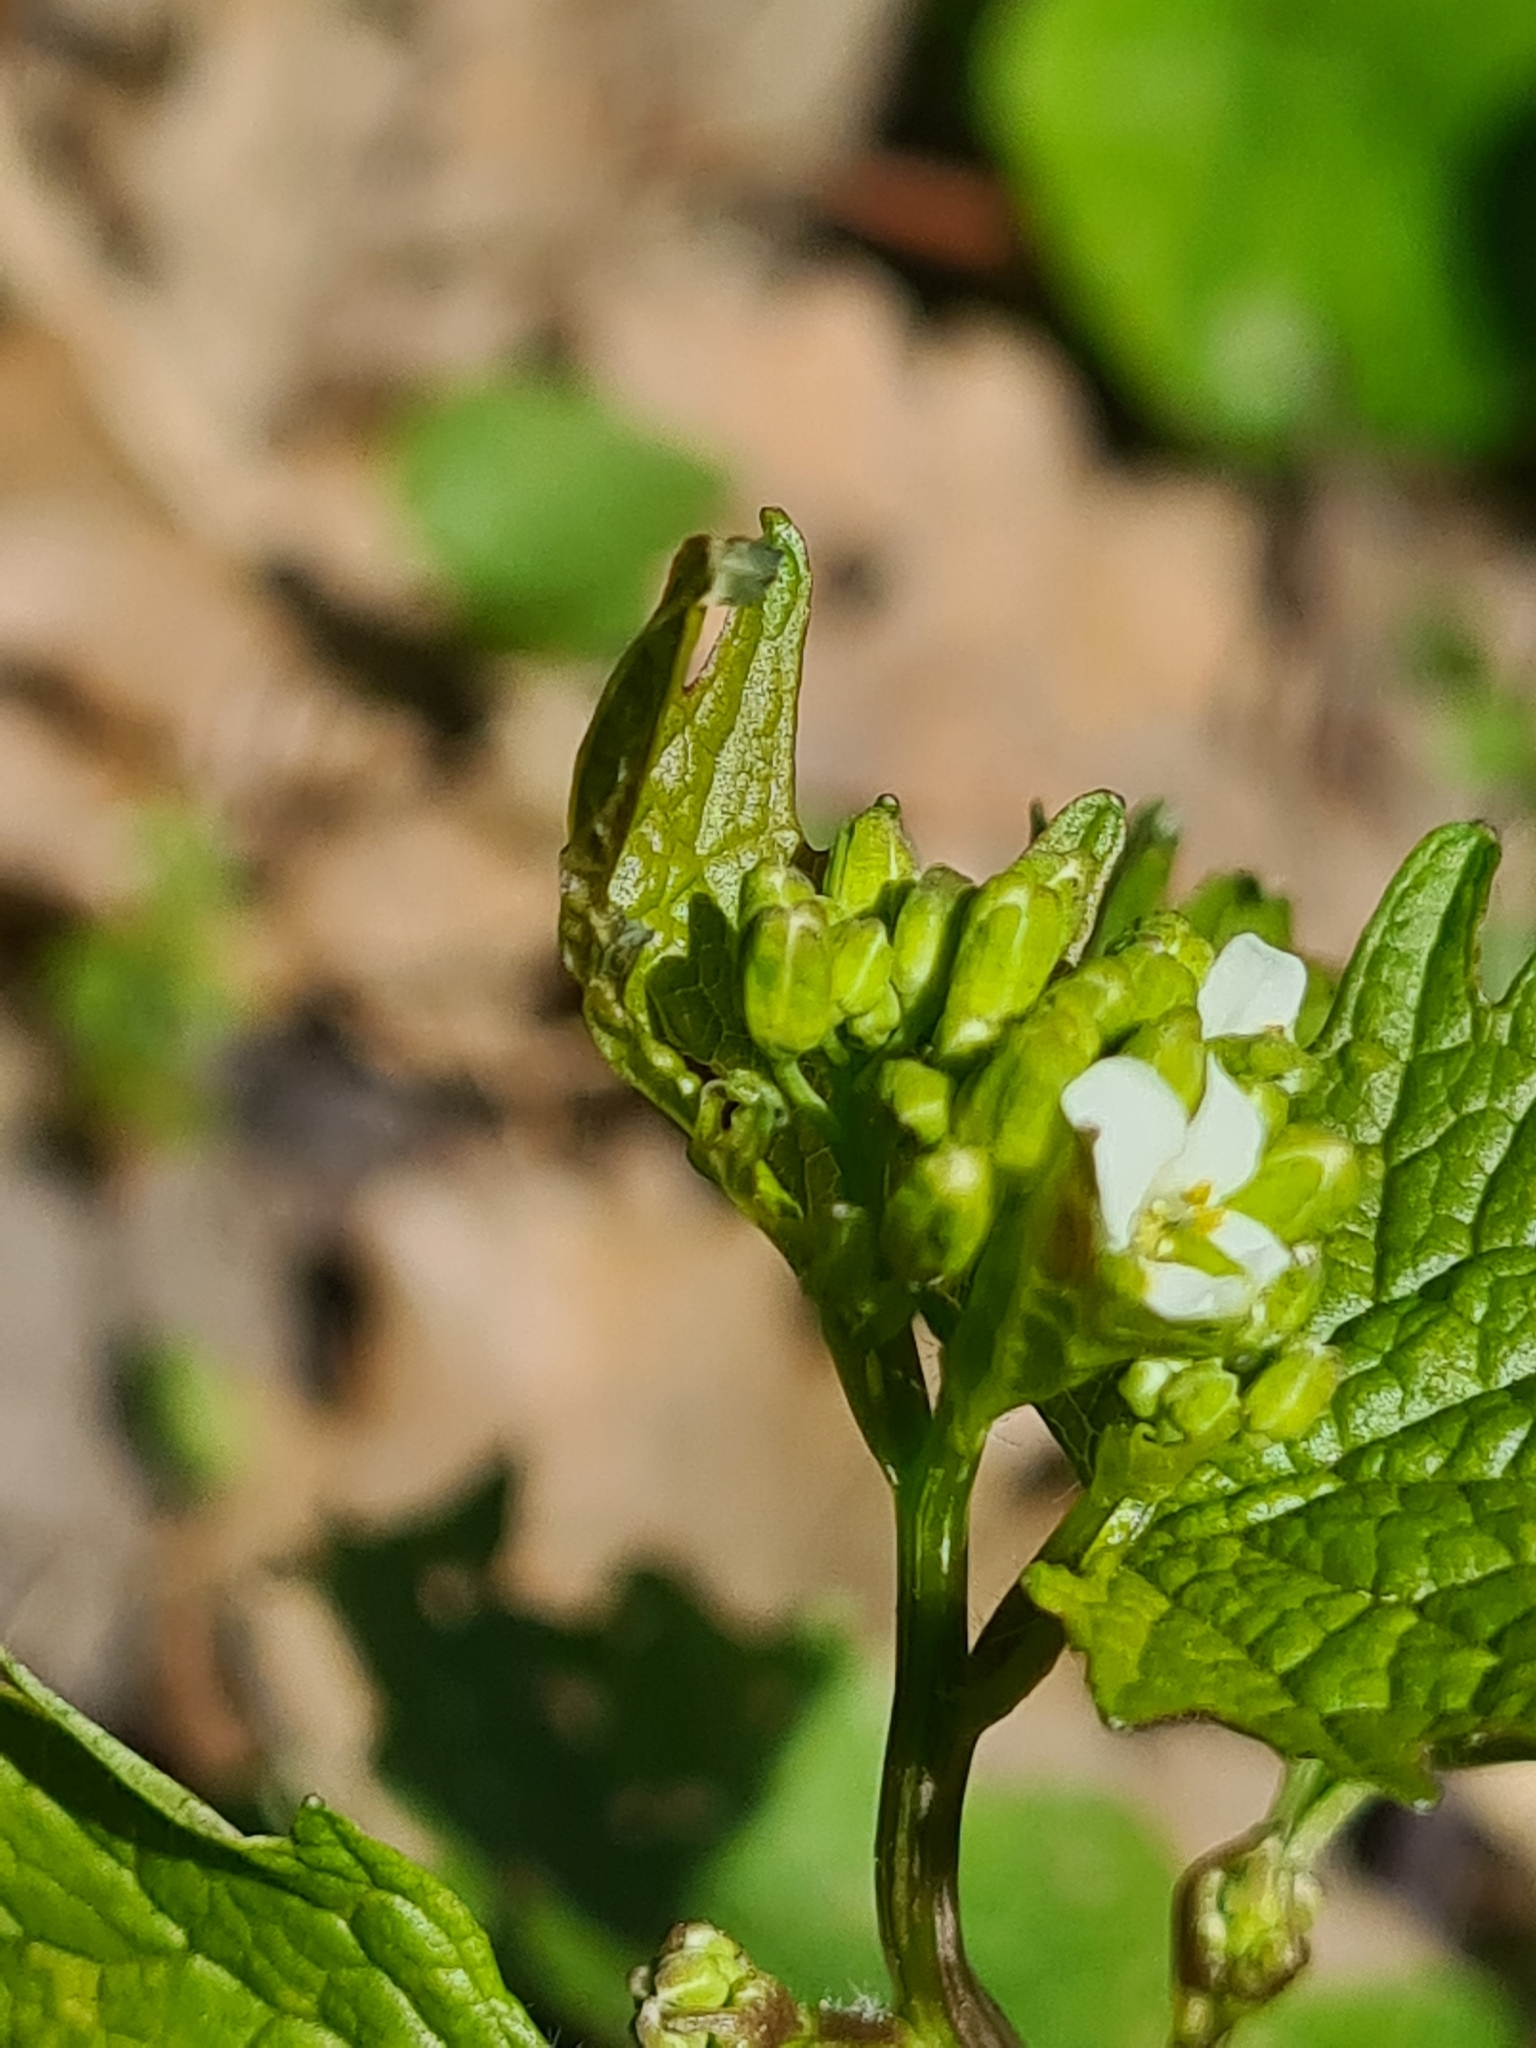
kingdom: Plantae
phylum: Tracheophyta
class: Magnoliopsida
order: Brassicales
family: Brassicaceae
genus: Alliaria
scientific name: Alliaria petiolata
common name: Garlic mustard
